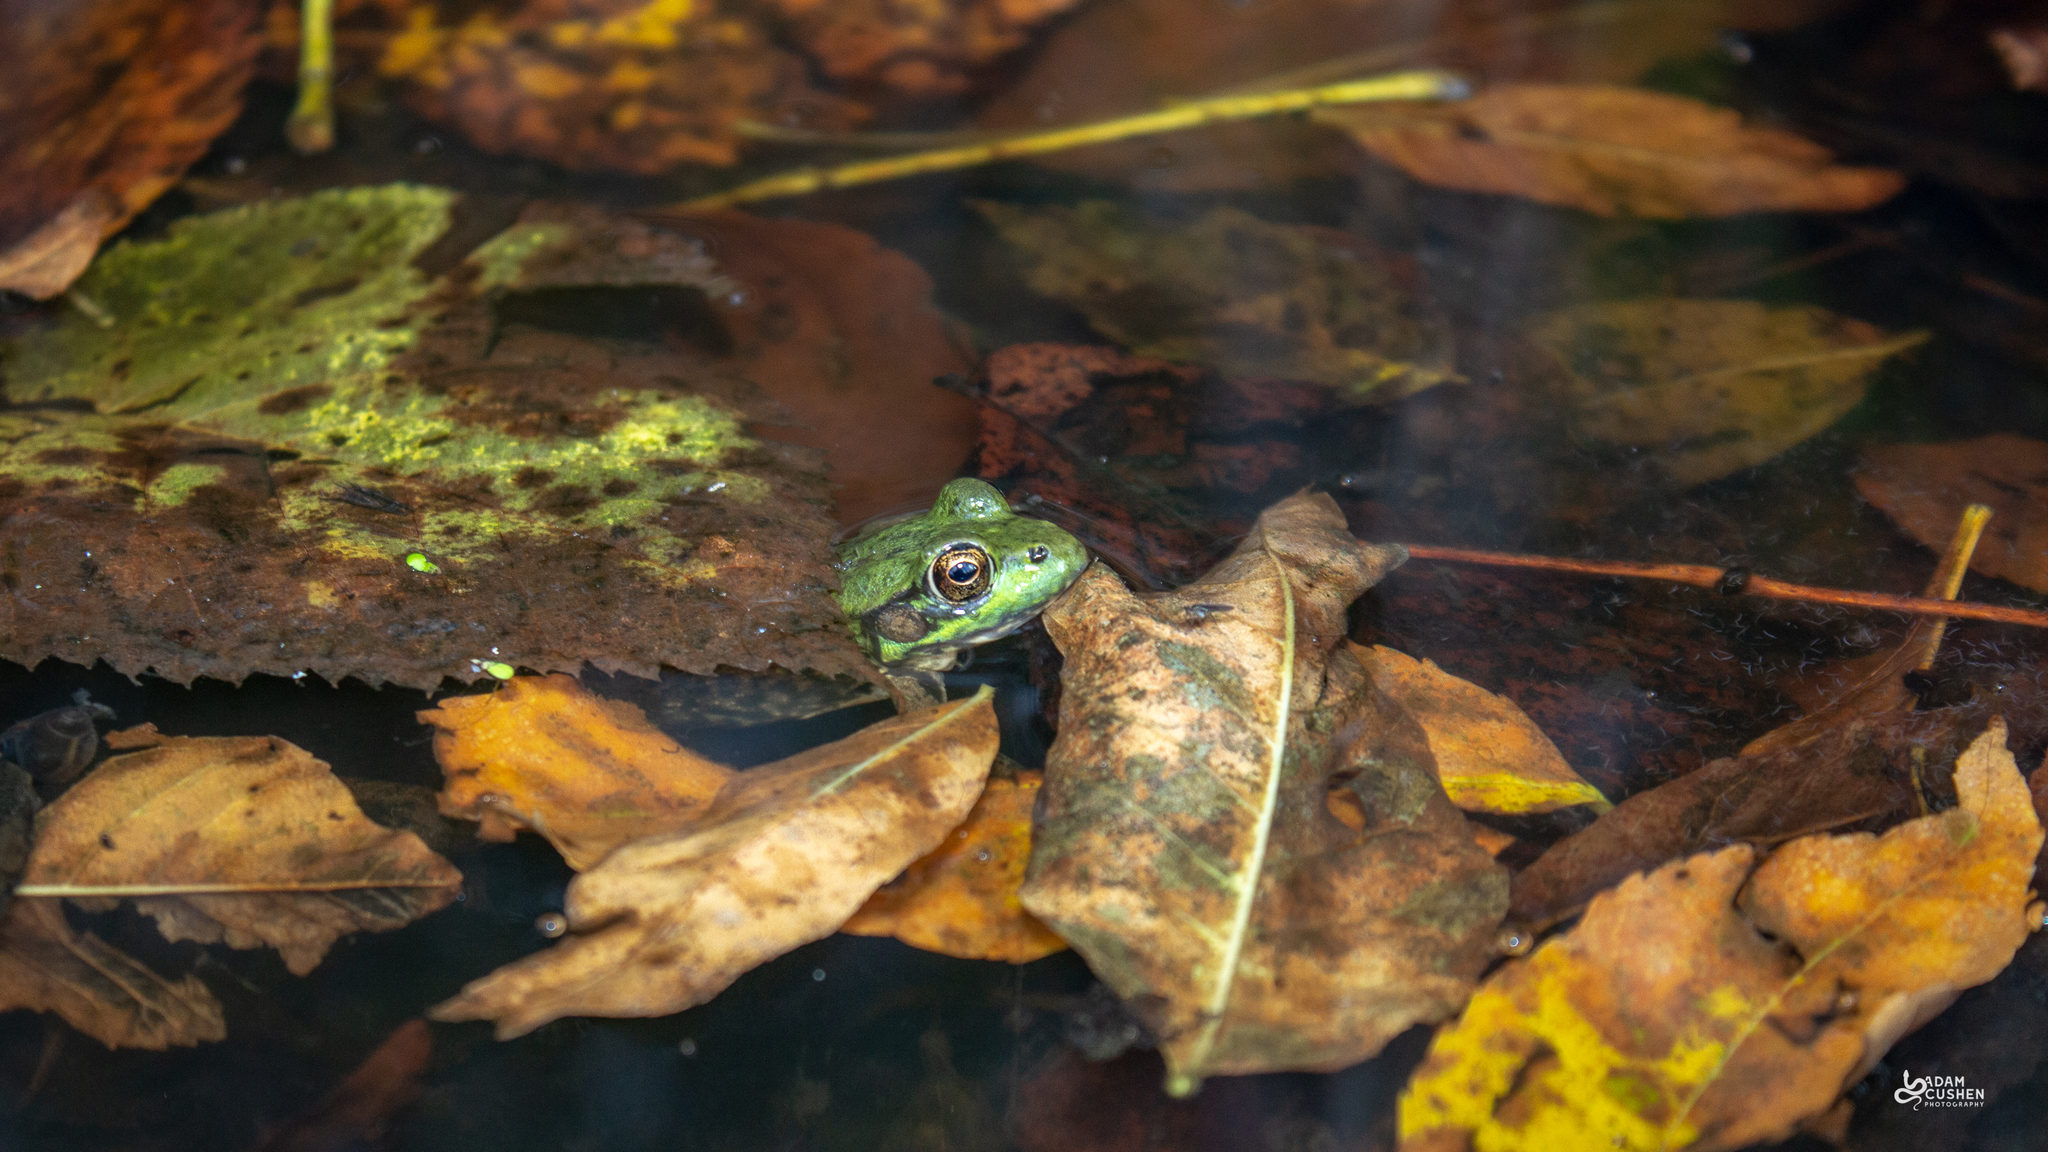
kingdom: Animalia
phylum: Chordata
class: Amphibia
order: Anura
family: Ranidae
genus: Lithobates
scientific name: Lithobates clamitans
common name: Green frog
